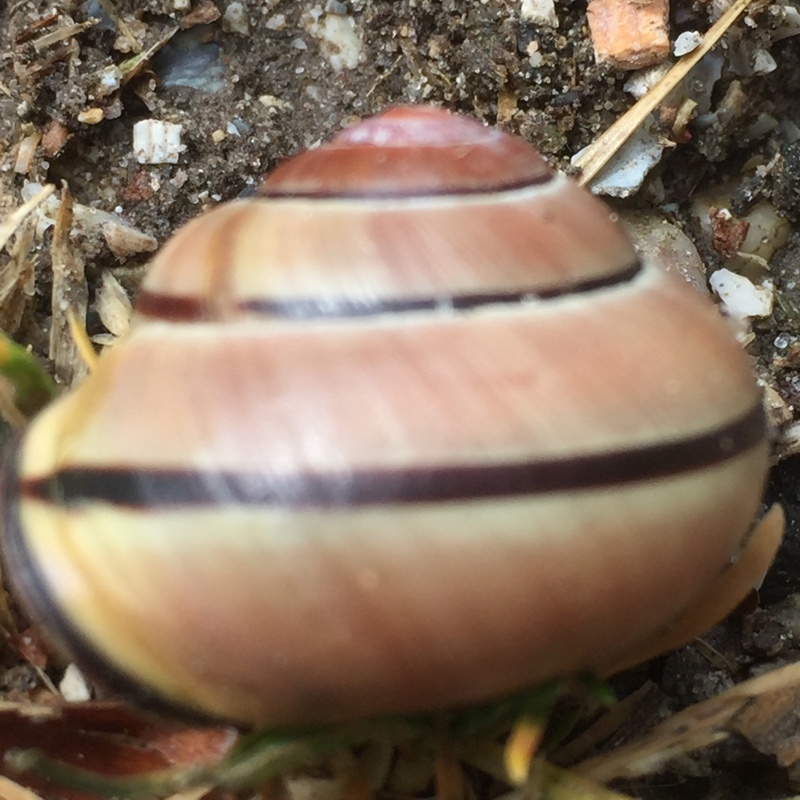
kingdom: Animalia
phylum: Mollusca
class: Gastropoda
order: Stylommatophora
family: Helicidae
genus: Cepaea
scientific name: Cepaea nemoralis
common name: Grovesnail
